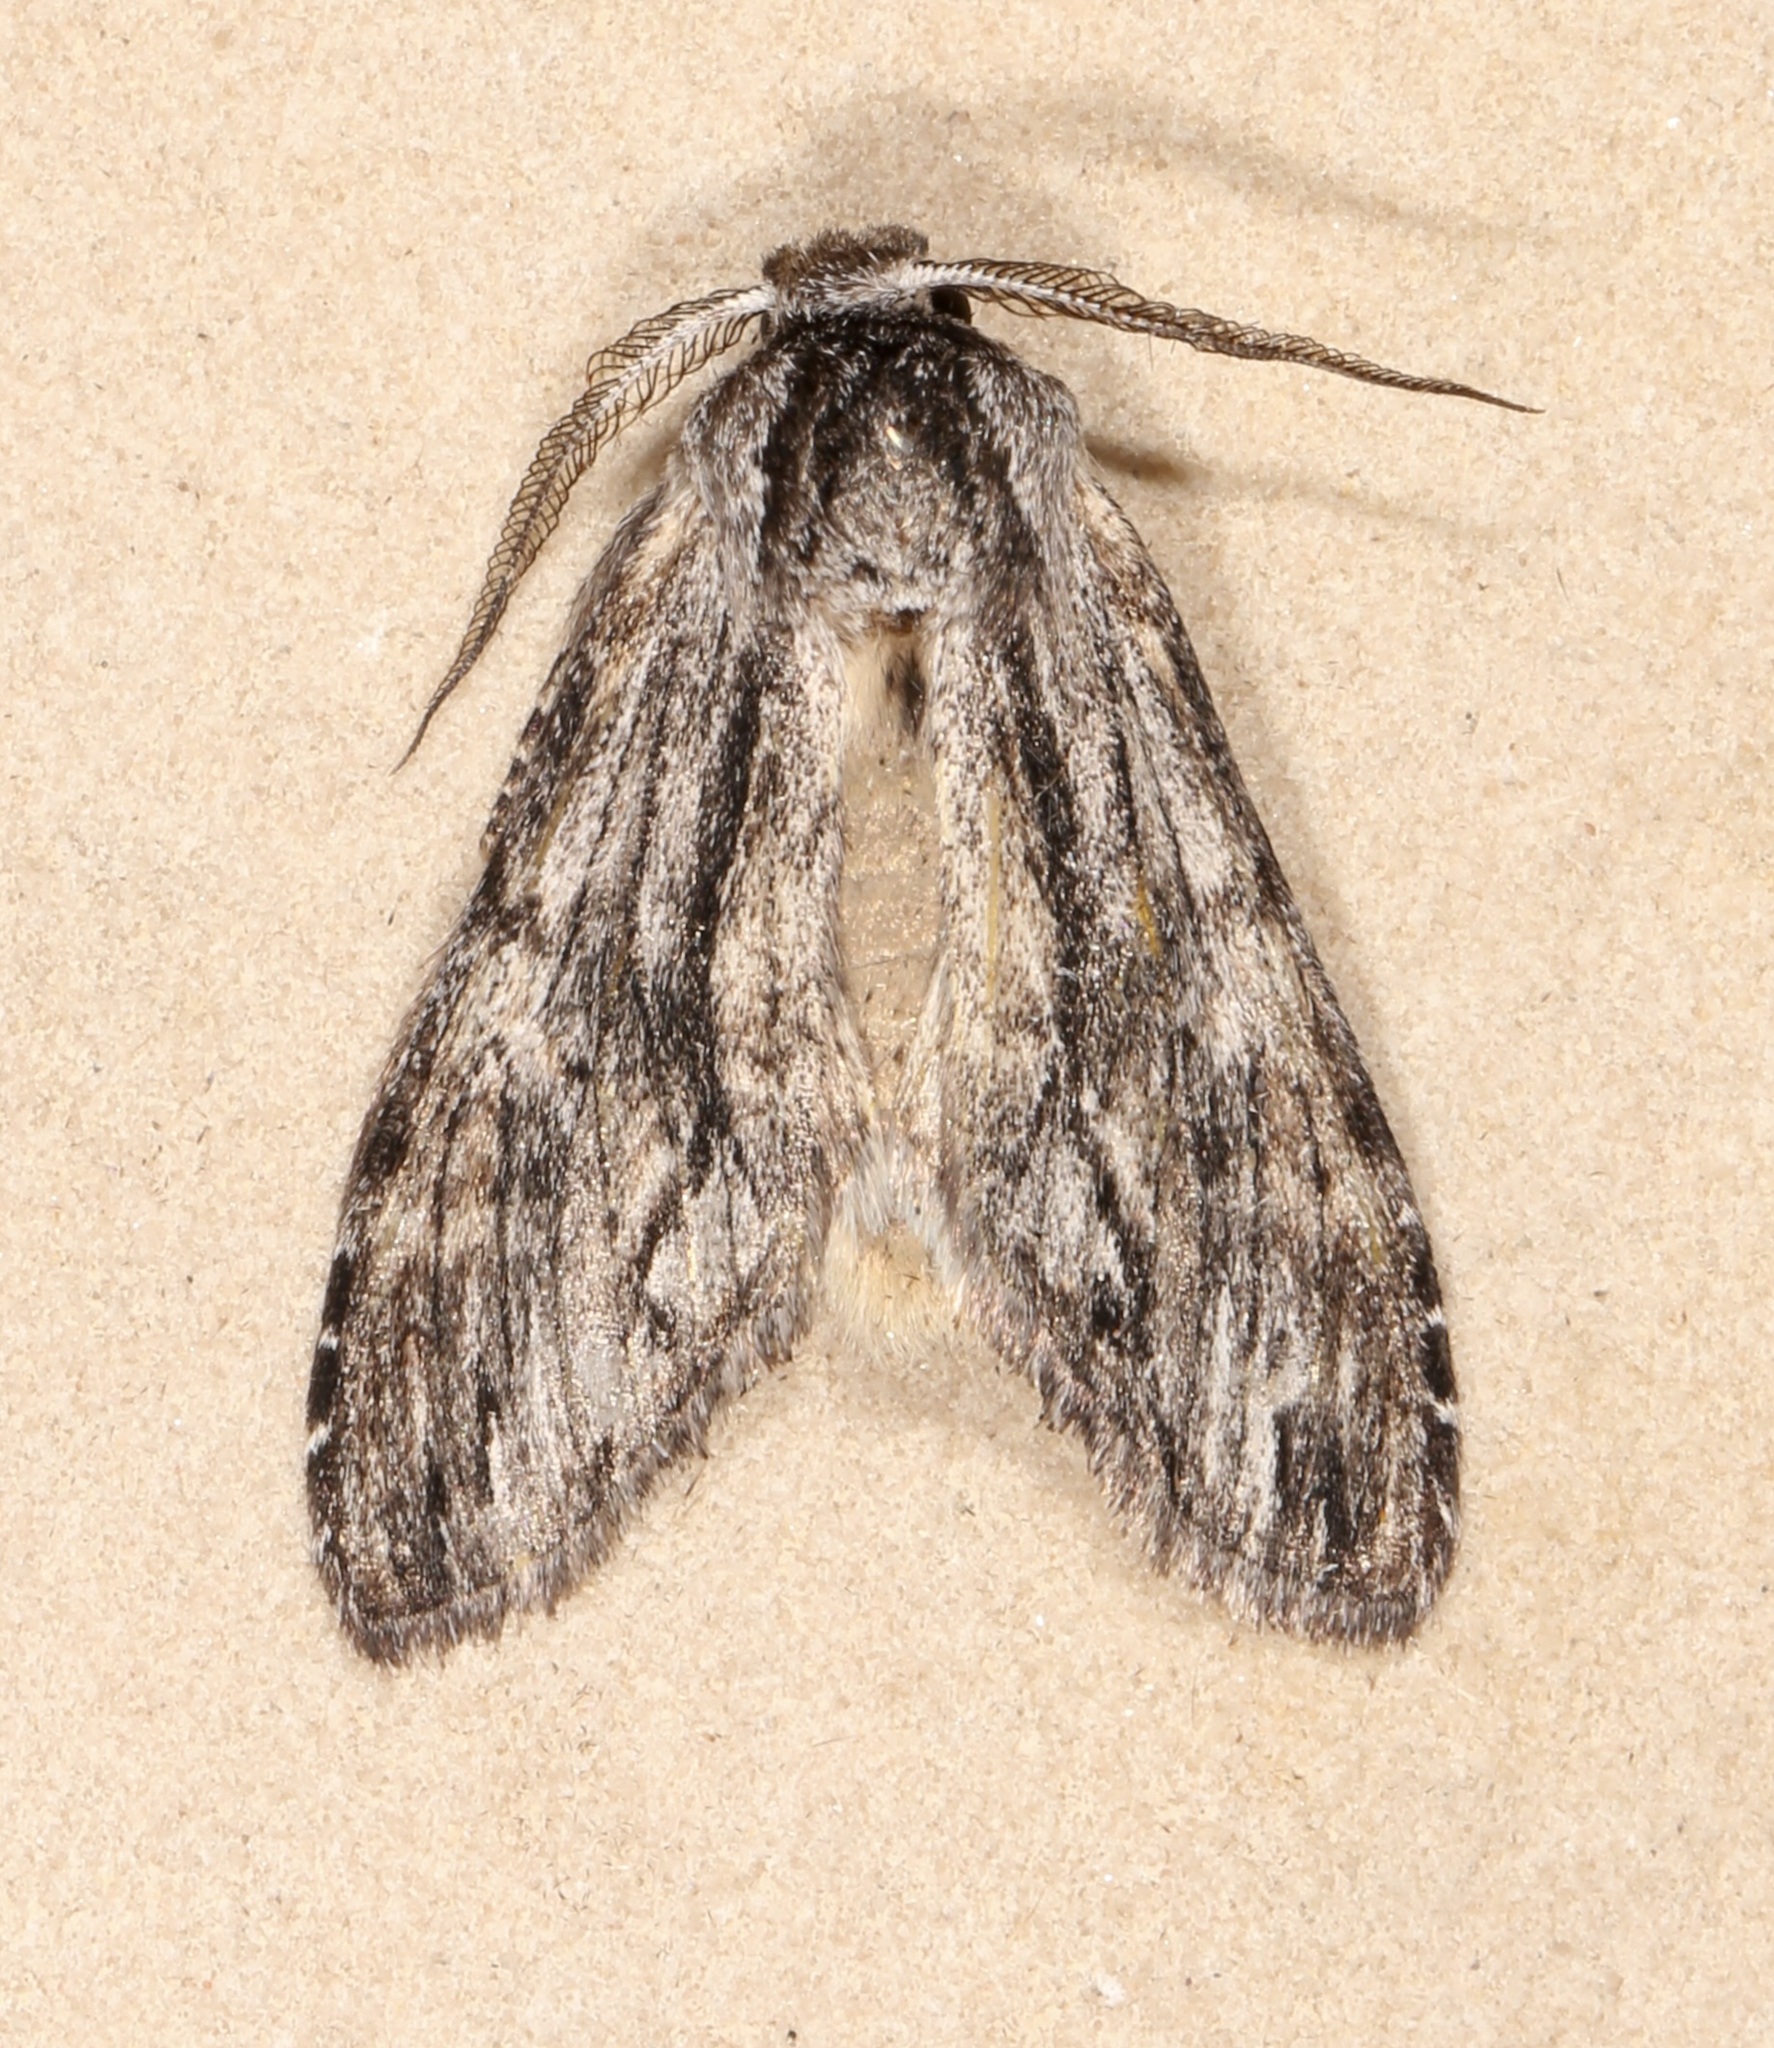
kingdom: Animalia
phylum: Arthropoda
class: Insecta
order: Lepidoptera
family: Notodontidae
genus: Notela
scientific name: Notela jaliscana
